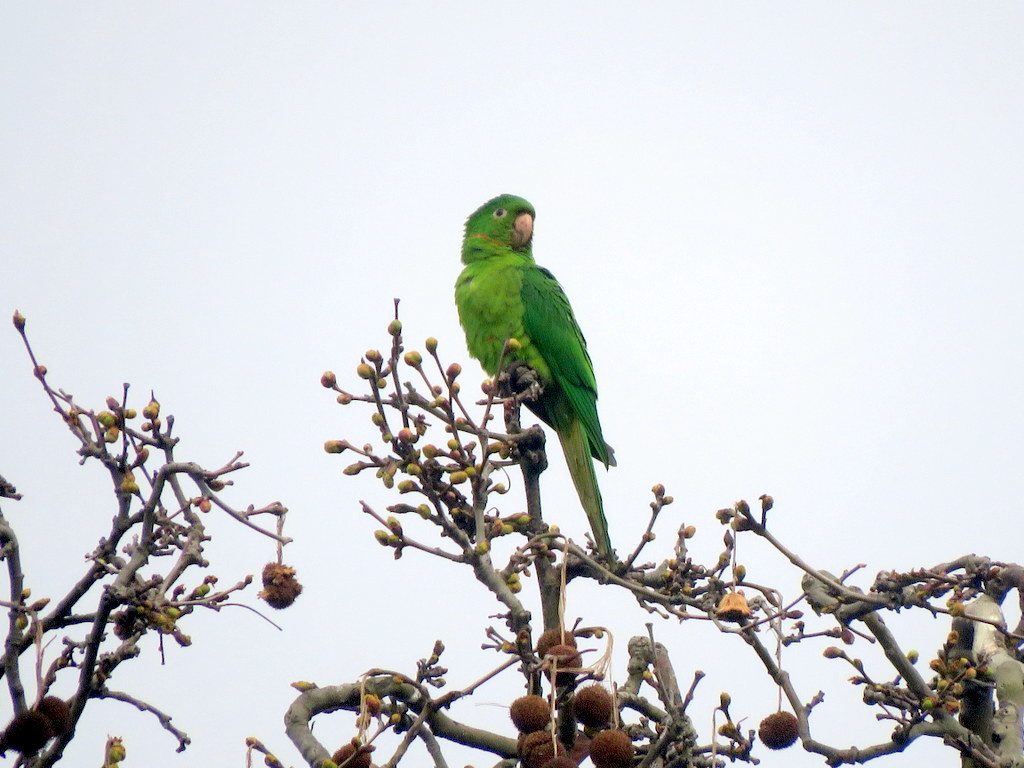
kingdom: Animalia
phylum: Chordata
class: Aves
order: Psittaciformes
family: Psittacidae
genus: Aratinga
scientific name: Aratinga leucophthalma
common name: White-eyed parakeet
